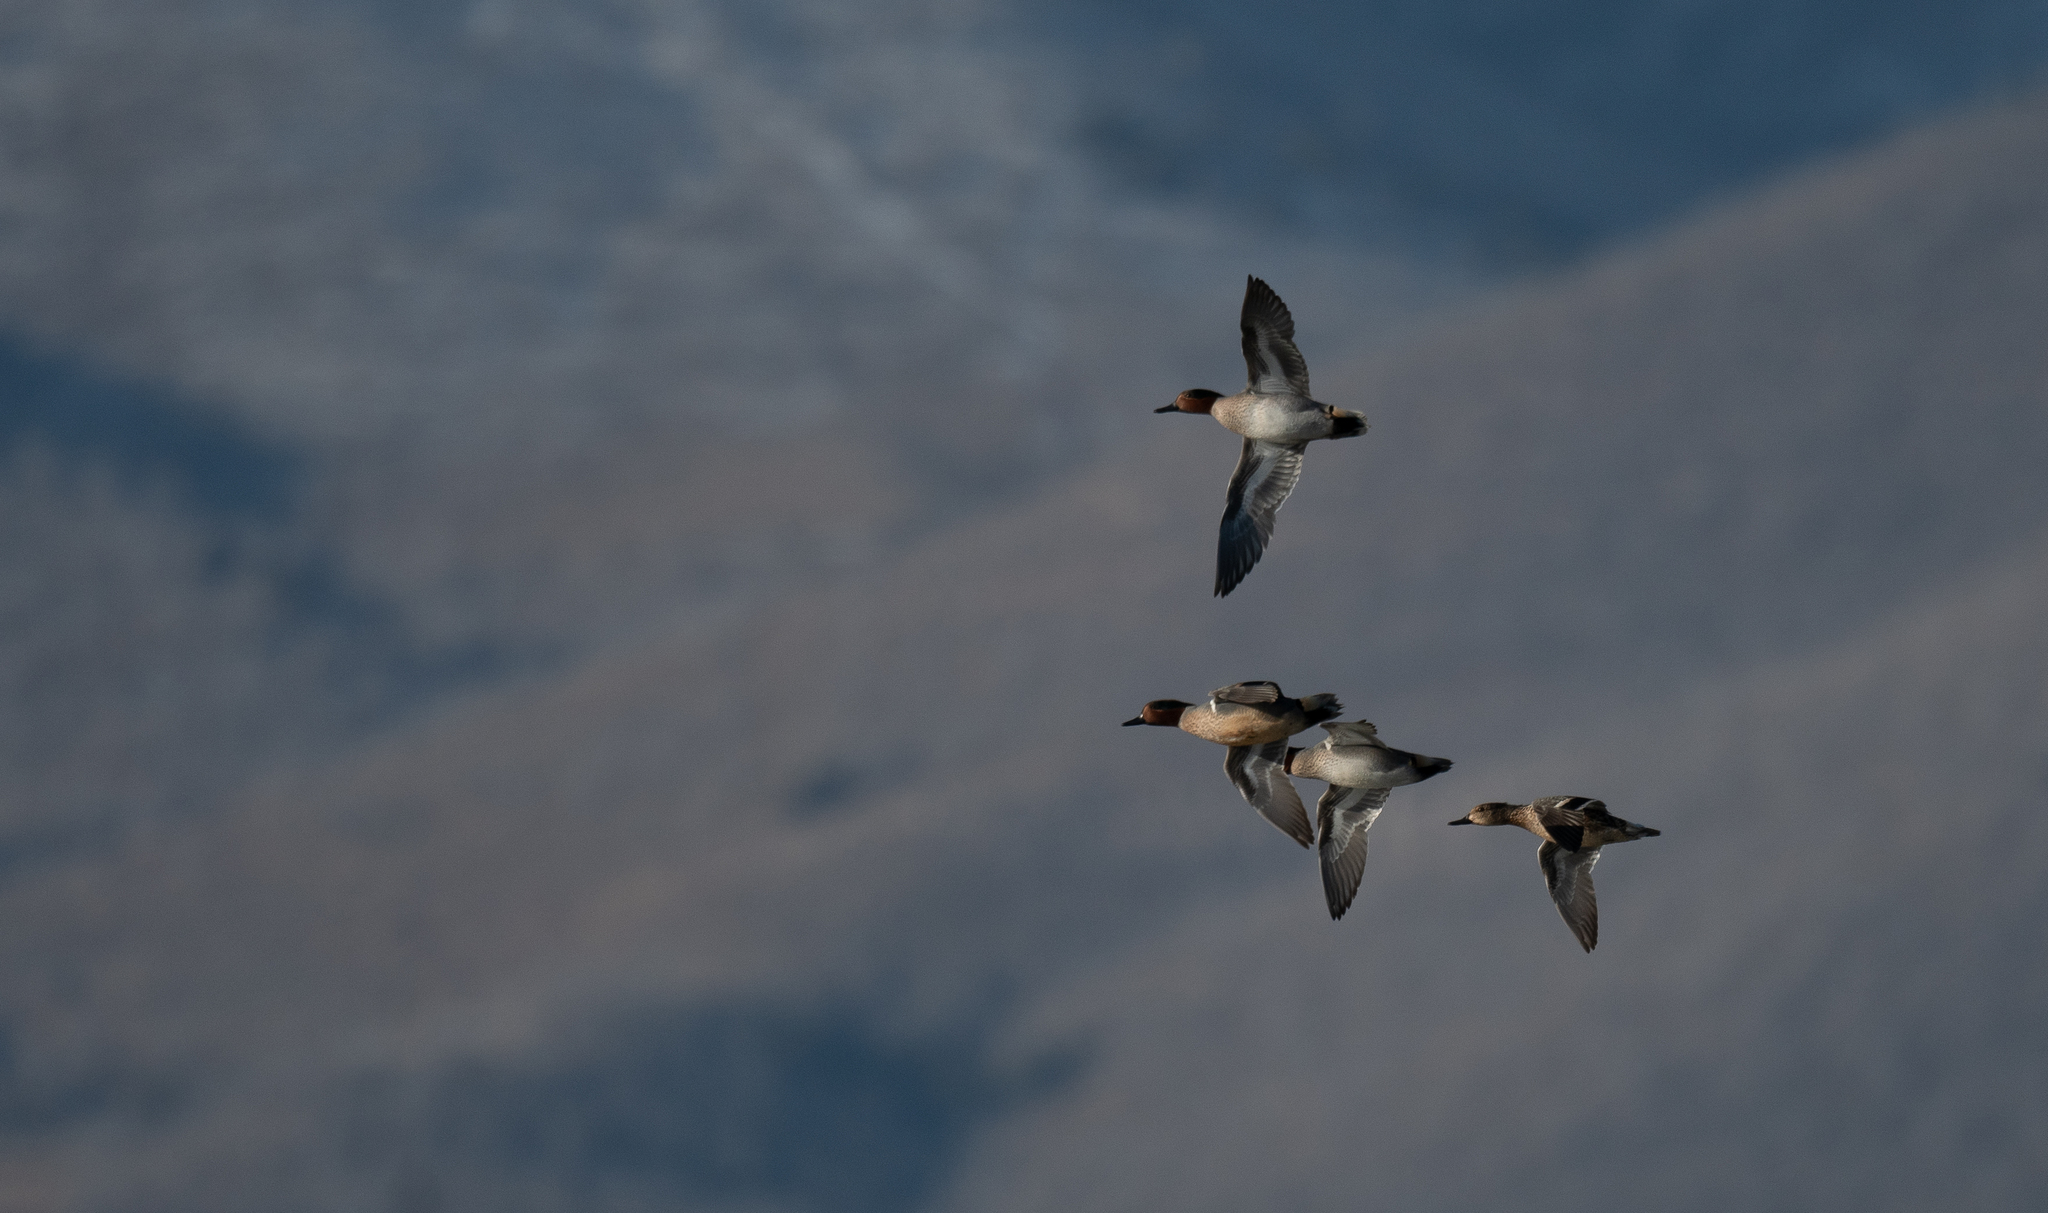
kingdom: Animalia
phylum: Chordata
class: Aves
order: Anseriformes
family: Anatidae
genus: Anas
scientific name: Anas crecca
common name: Eurasian teal
